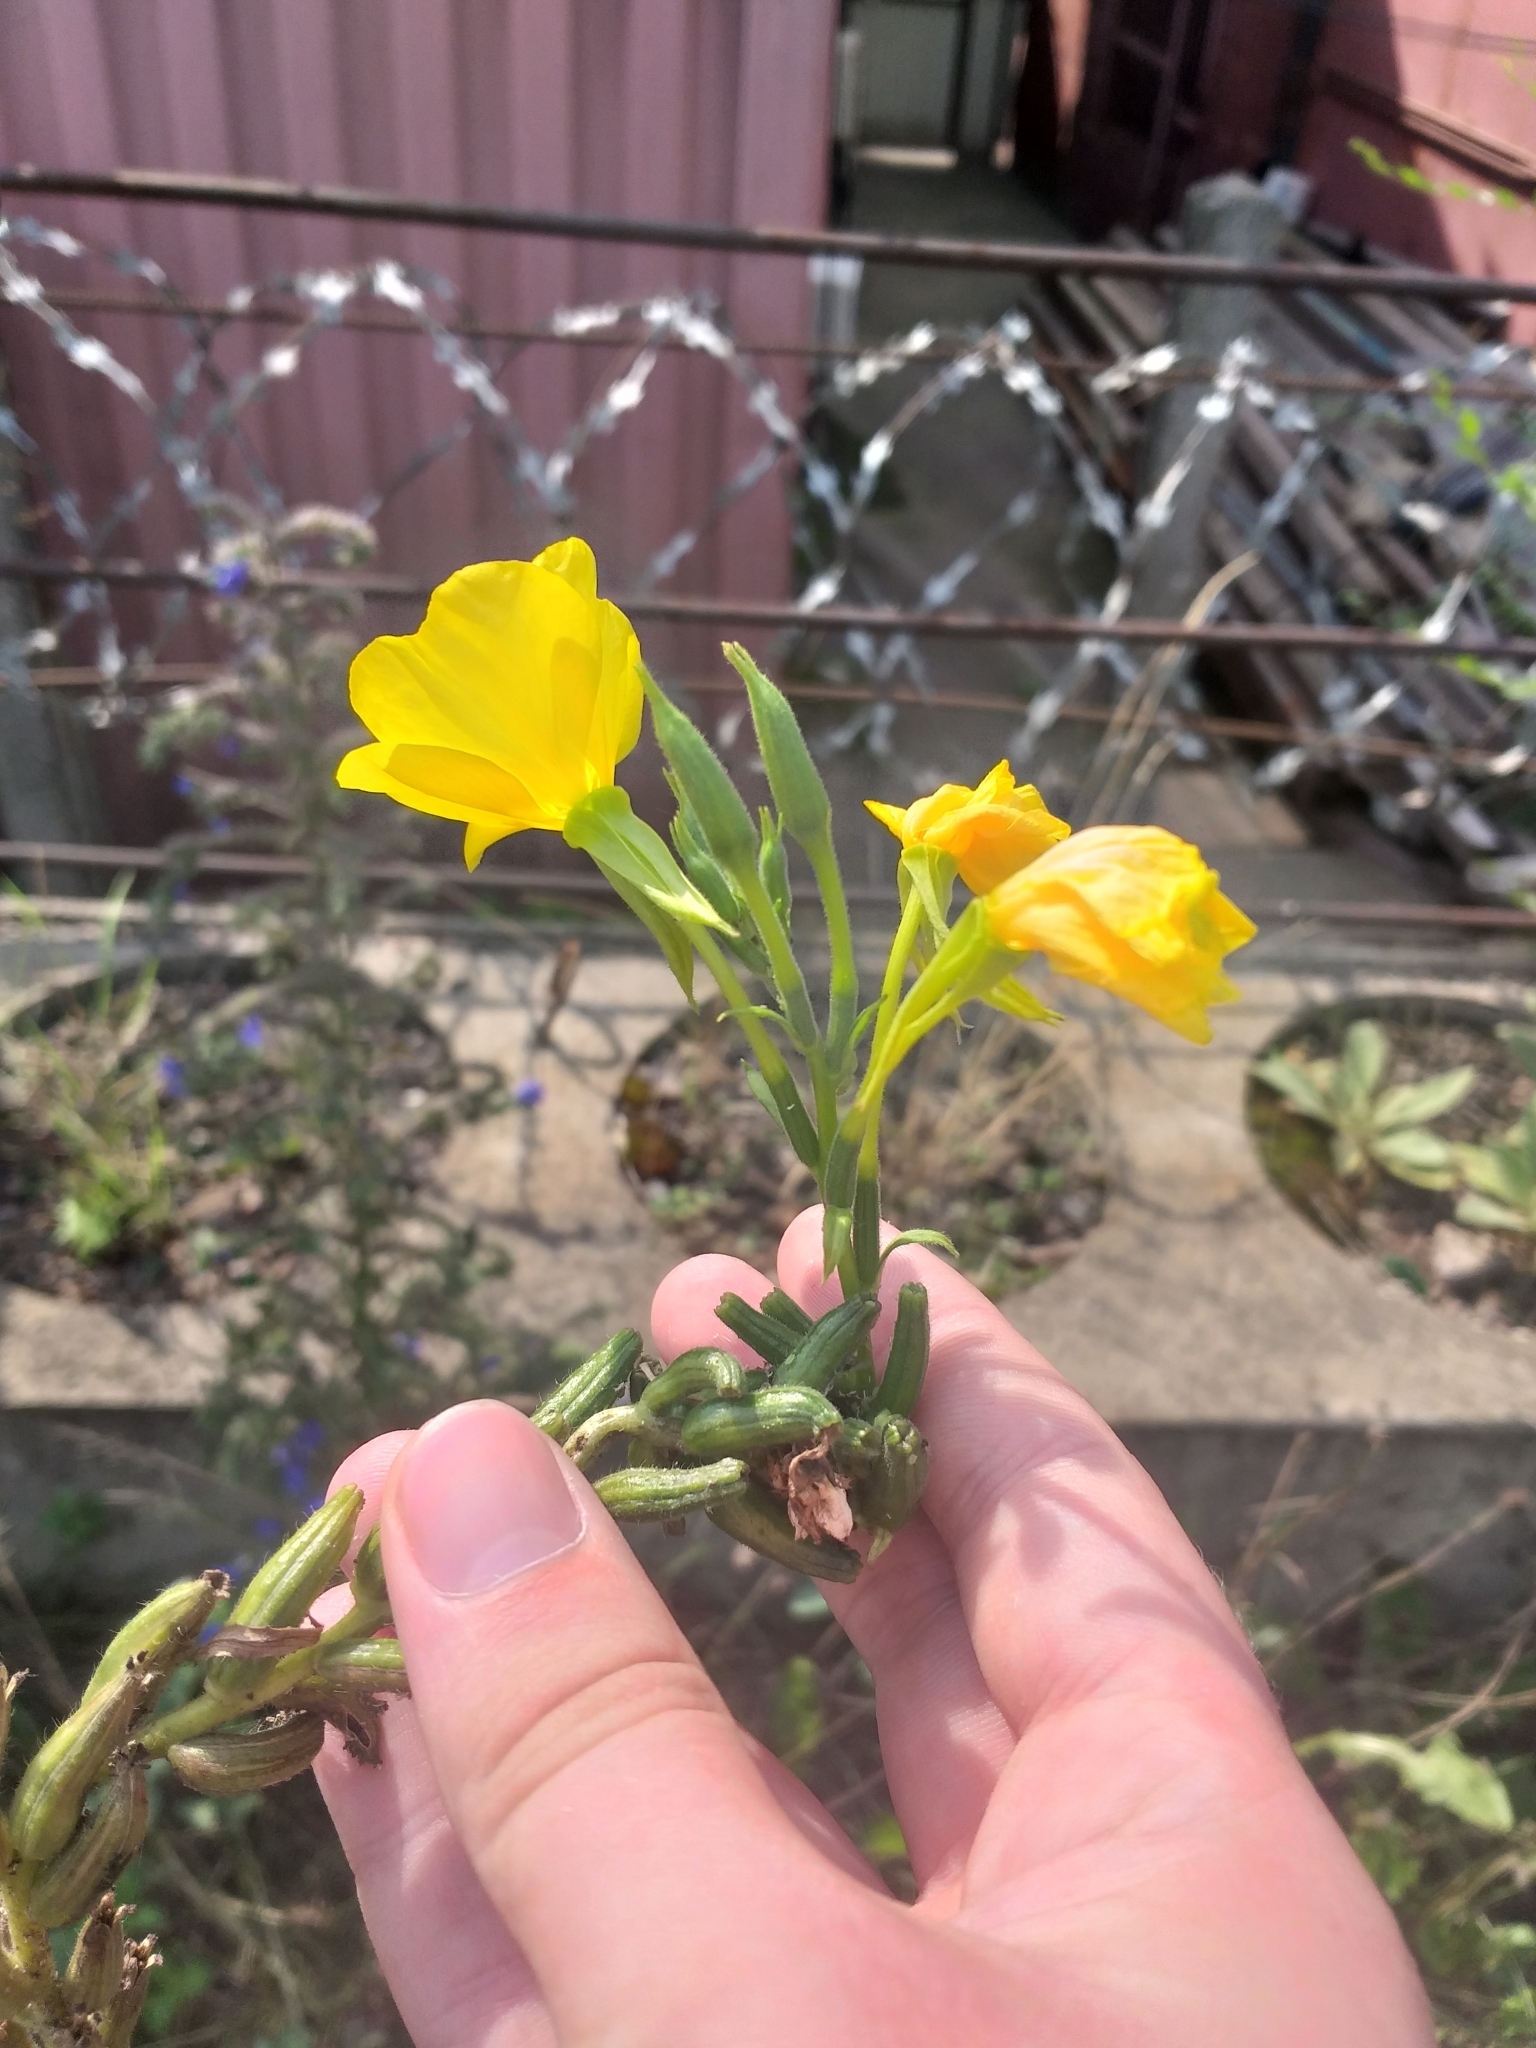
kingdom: Plantae
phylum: Tracheophyta
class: Magnoliopsida
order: Myrtales
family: Onagraceae
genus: Oenothera
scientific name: Oenothera biennis
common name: Common evening-primrose
